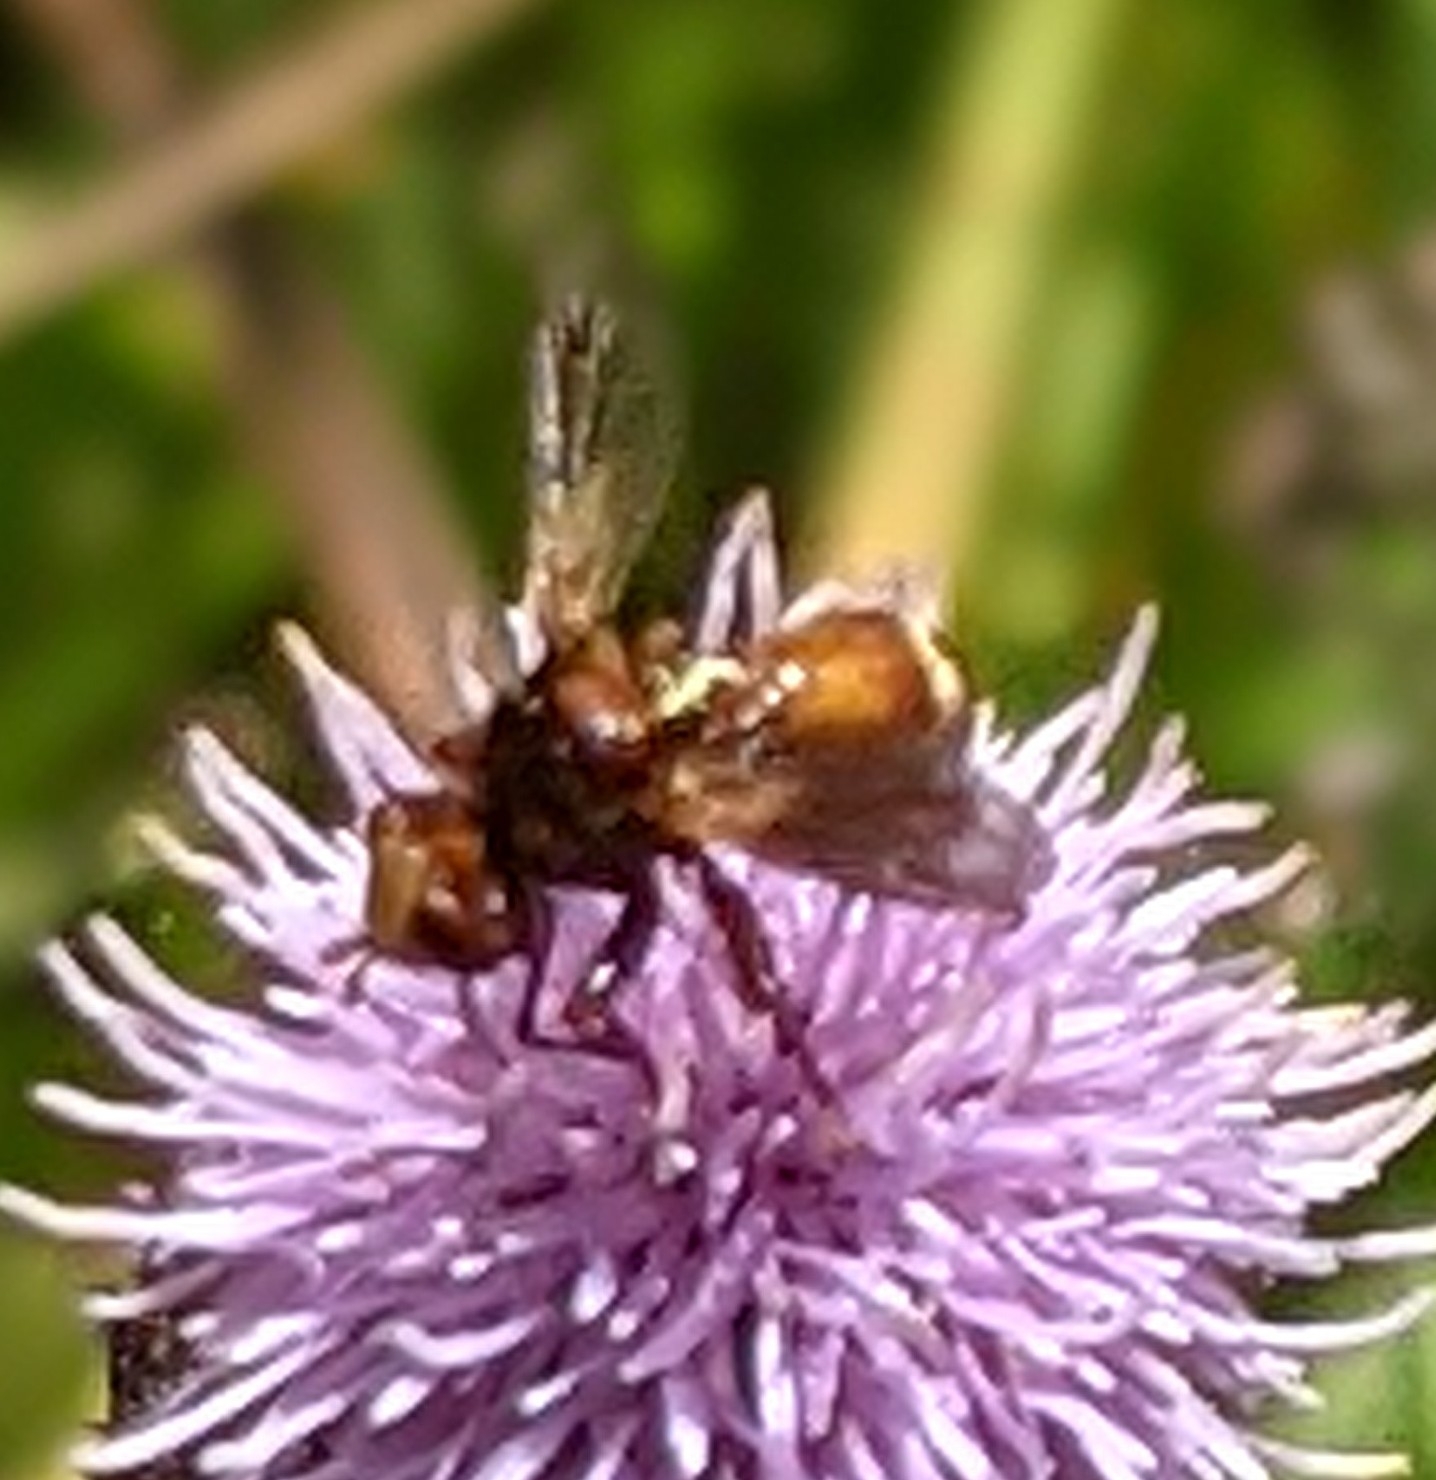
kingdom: Animalia
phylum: Arthropoda
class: Insecta
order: Diptera
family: Conopidae
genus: Sicus
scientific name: Sicus ferrugineus
